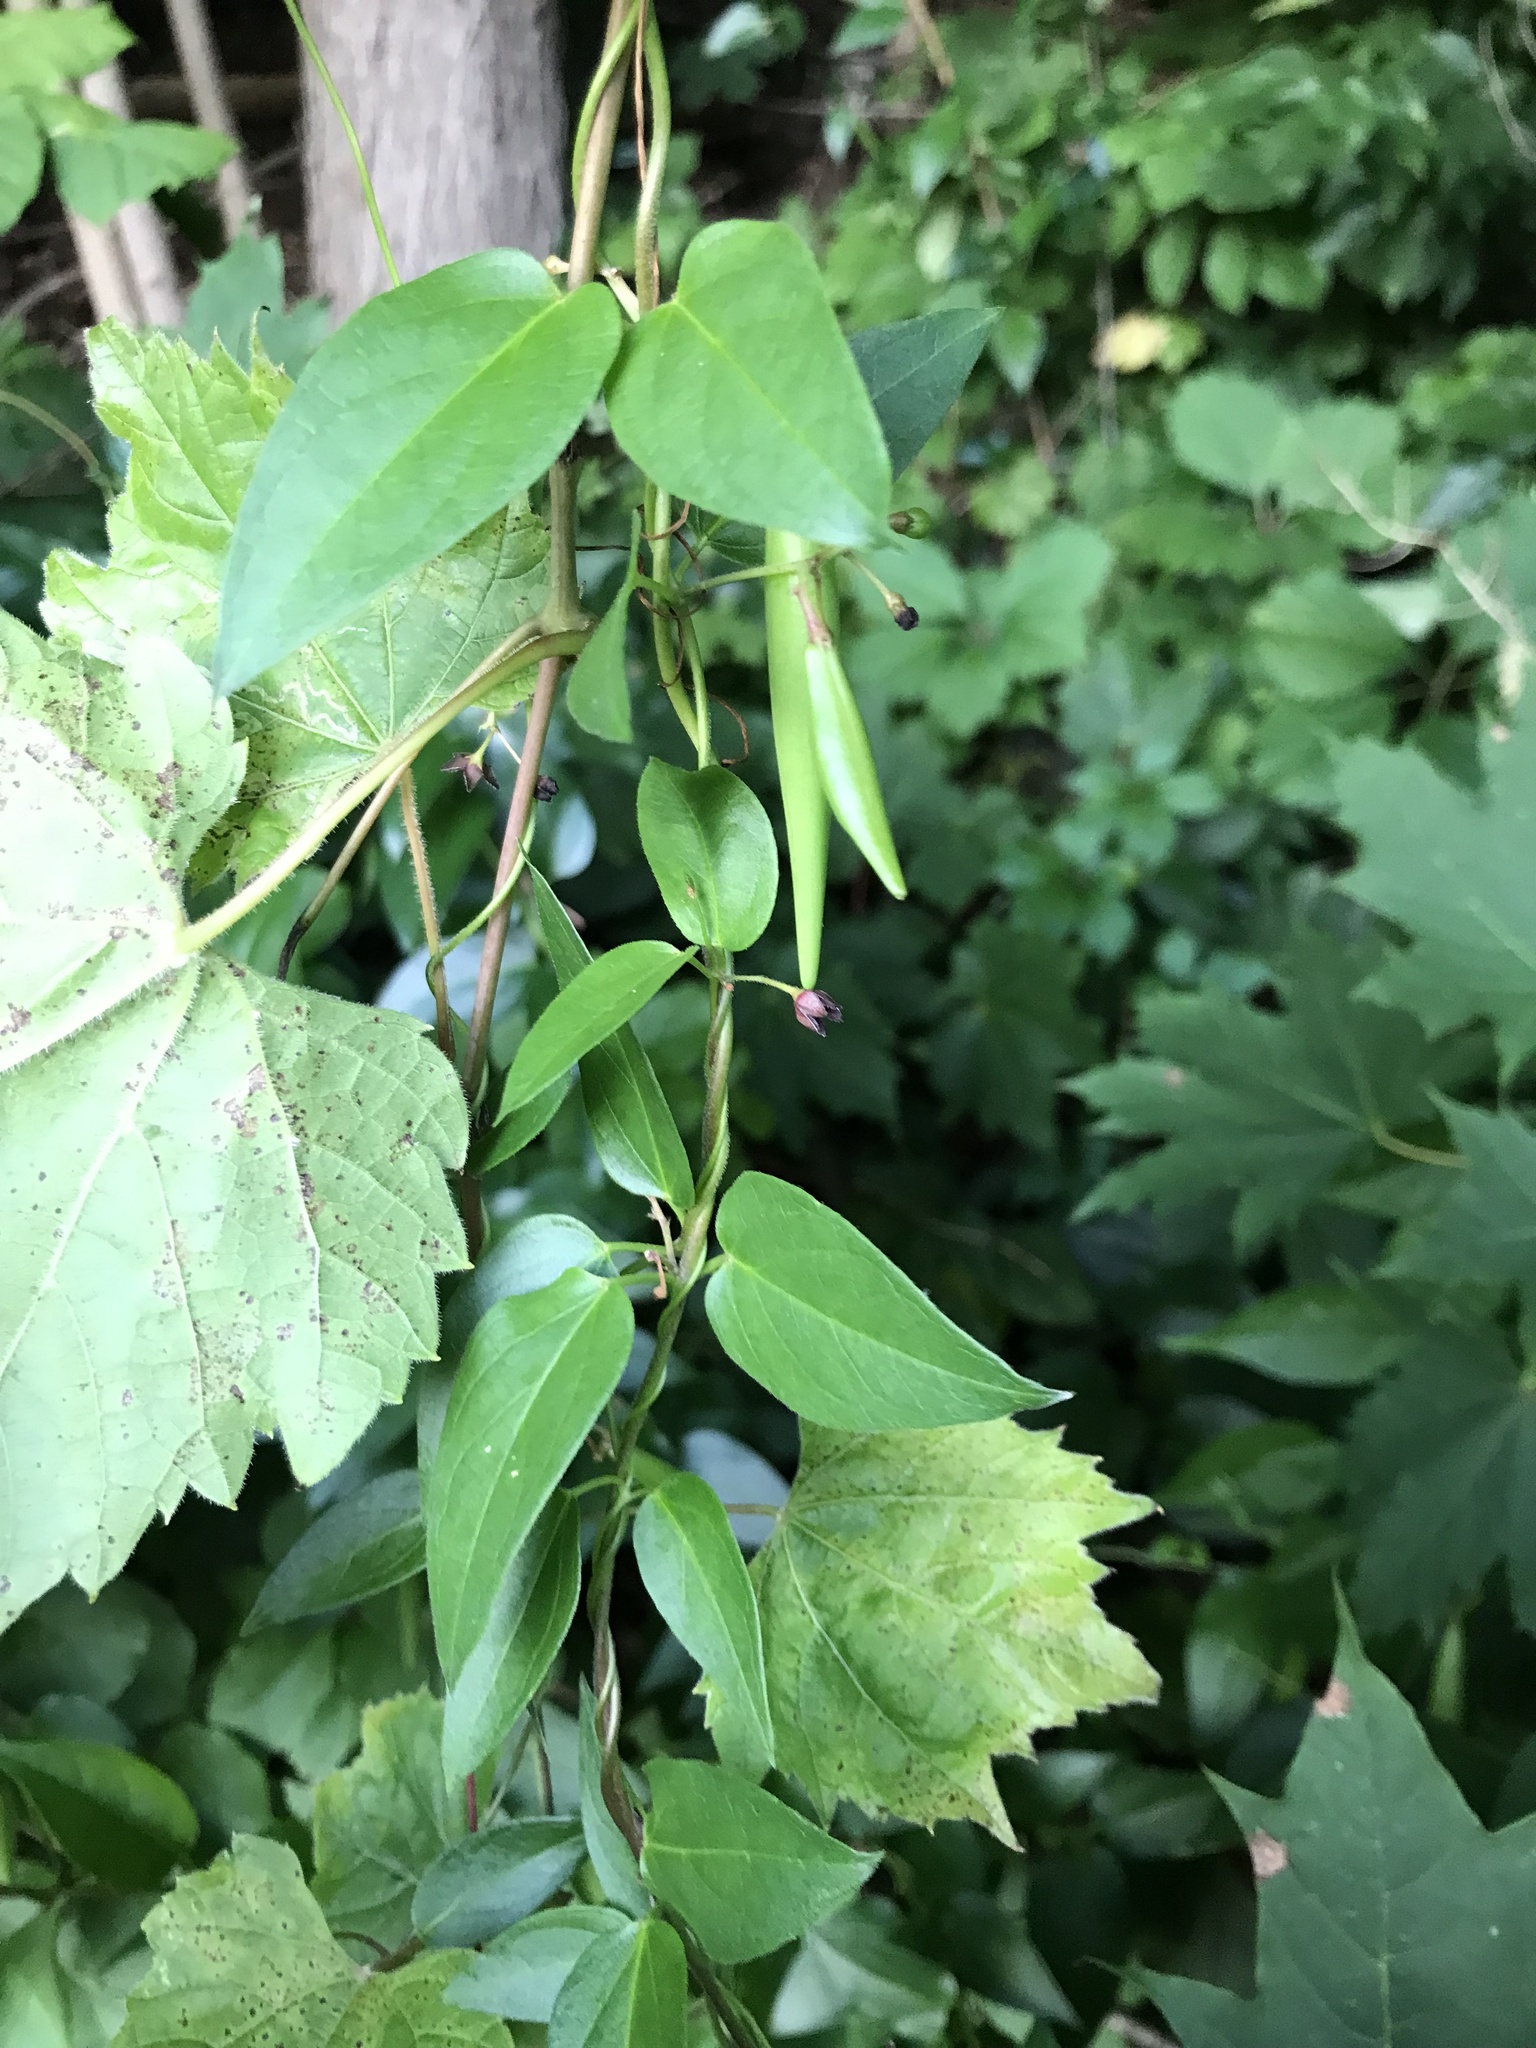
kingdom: Plantae
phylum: Tracheophyta
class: Magnoliopsida
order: Gentianales
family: Apocynaceae
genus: Vincetoxicum
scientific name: Vincetoxicum nigrum
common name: Black swallow-wort
